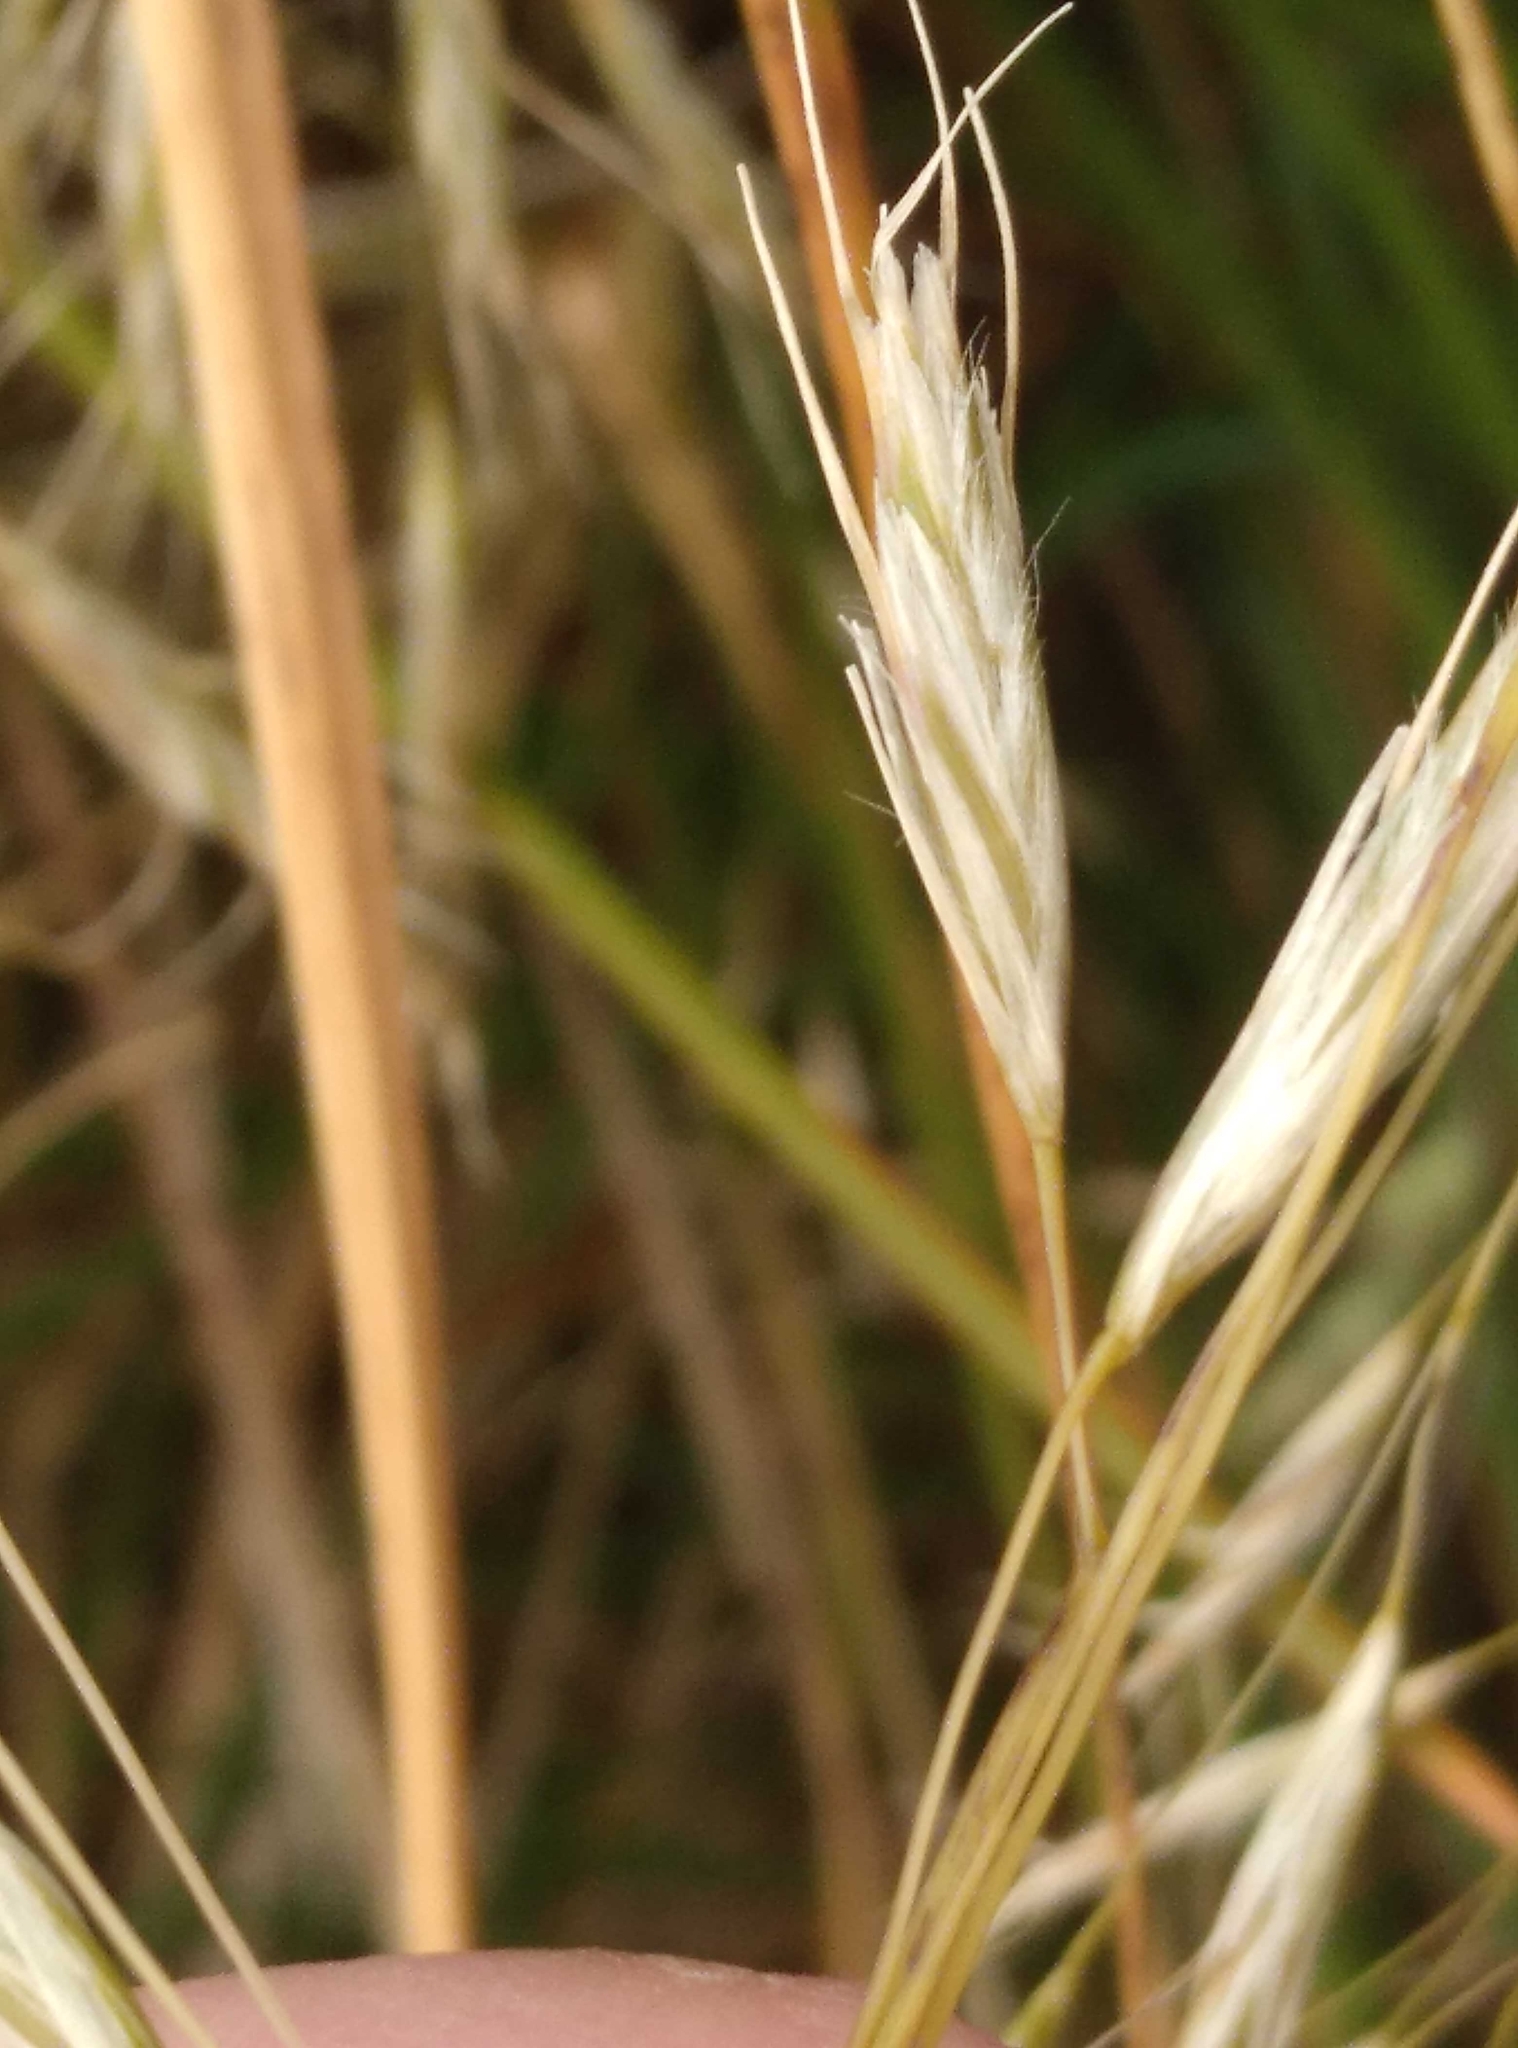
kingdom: Plantae
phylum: Tracheophyta
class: Liliopsida
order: Poales
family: Poaceae
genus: Chionochloa
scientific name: Chionochloa rigida
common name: Narrow leaved snow tussock
